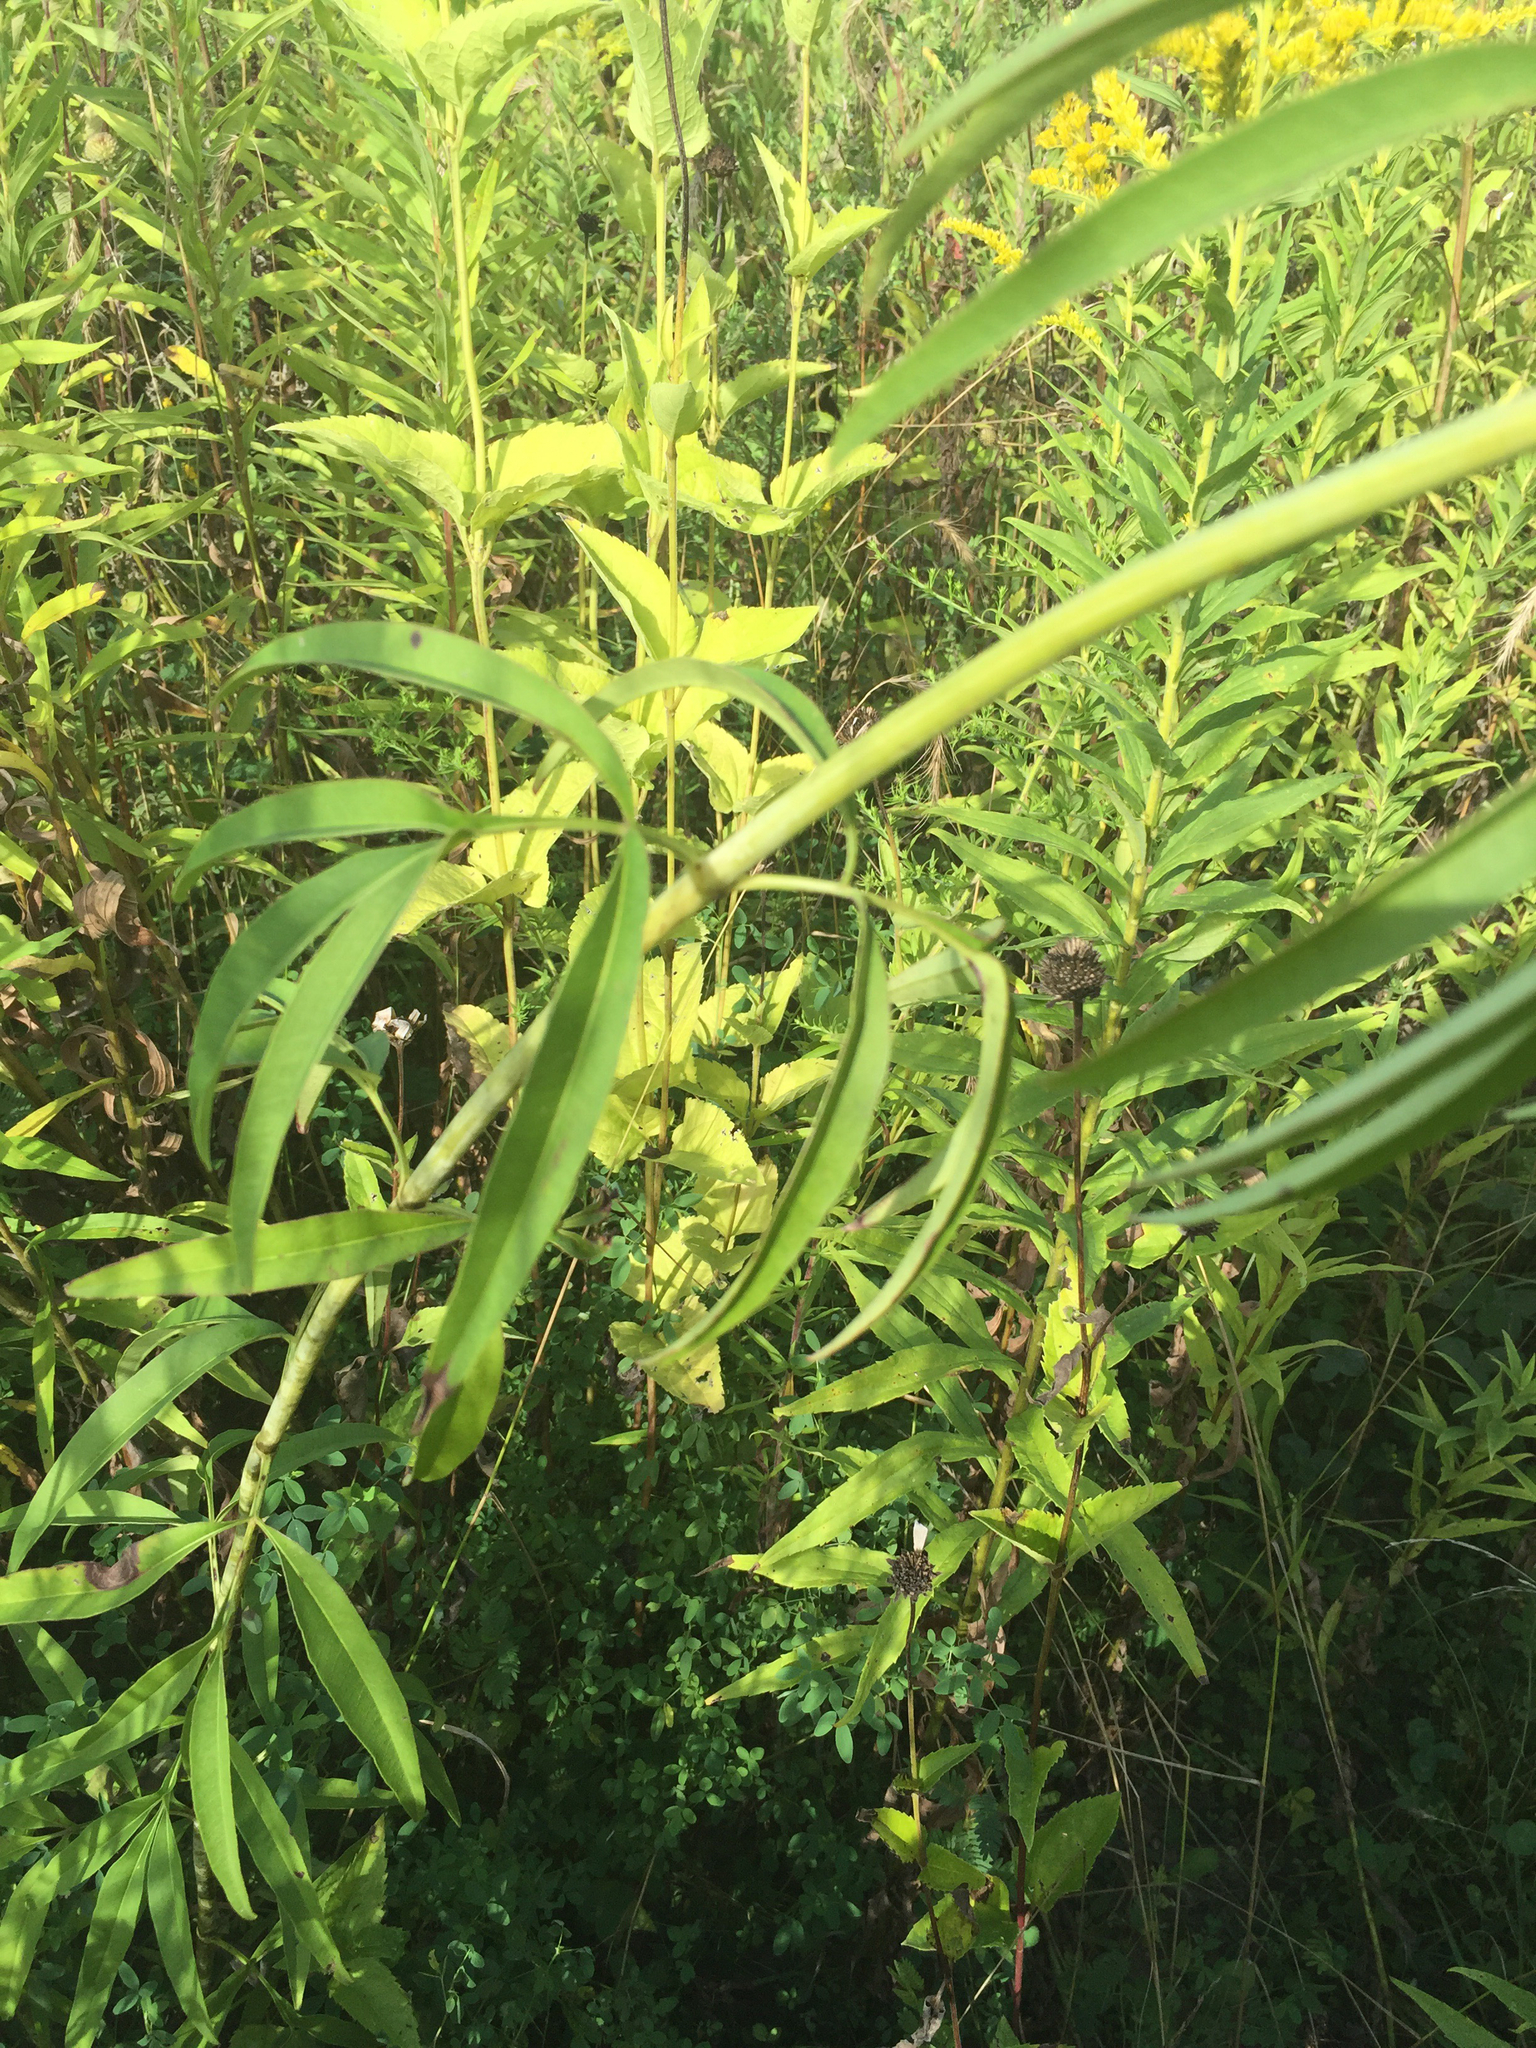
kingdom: Plantae
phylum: Tracheophyta
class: Magnoliopsida
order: Asterales
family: Asteraceae
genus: Coreopsis
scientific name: Coreopsis tripteris
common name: Tall coreopsis
